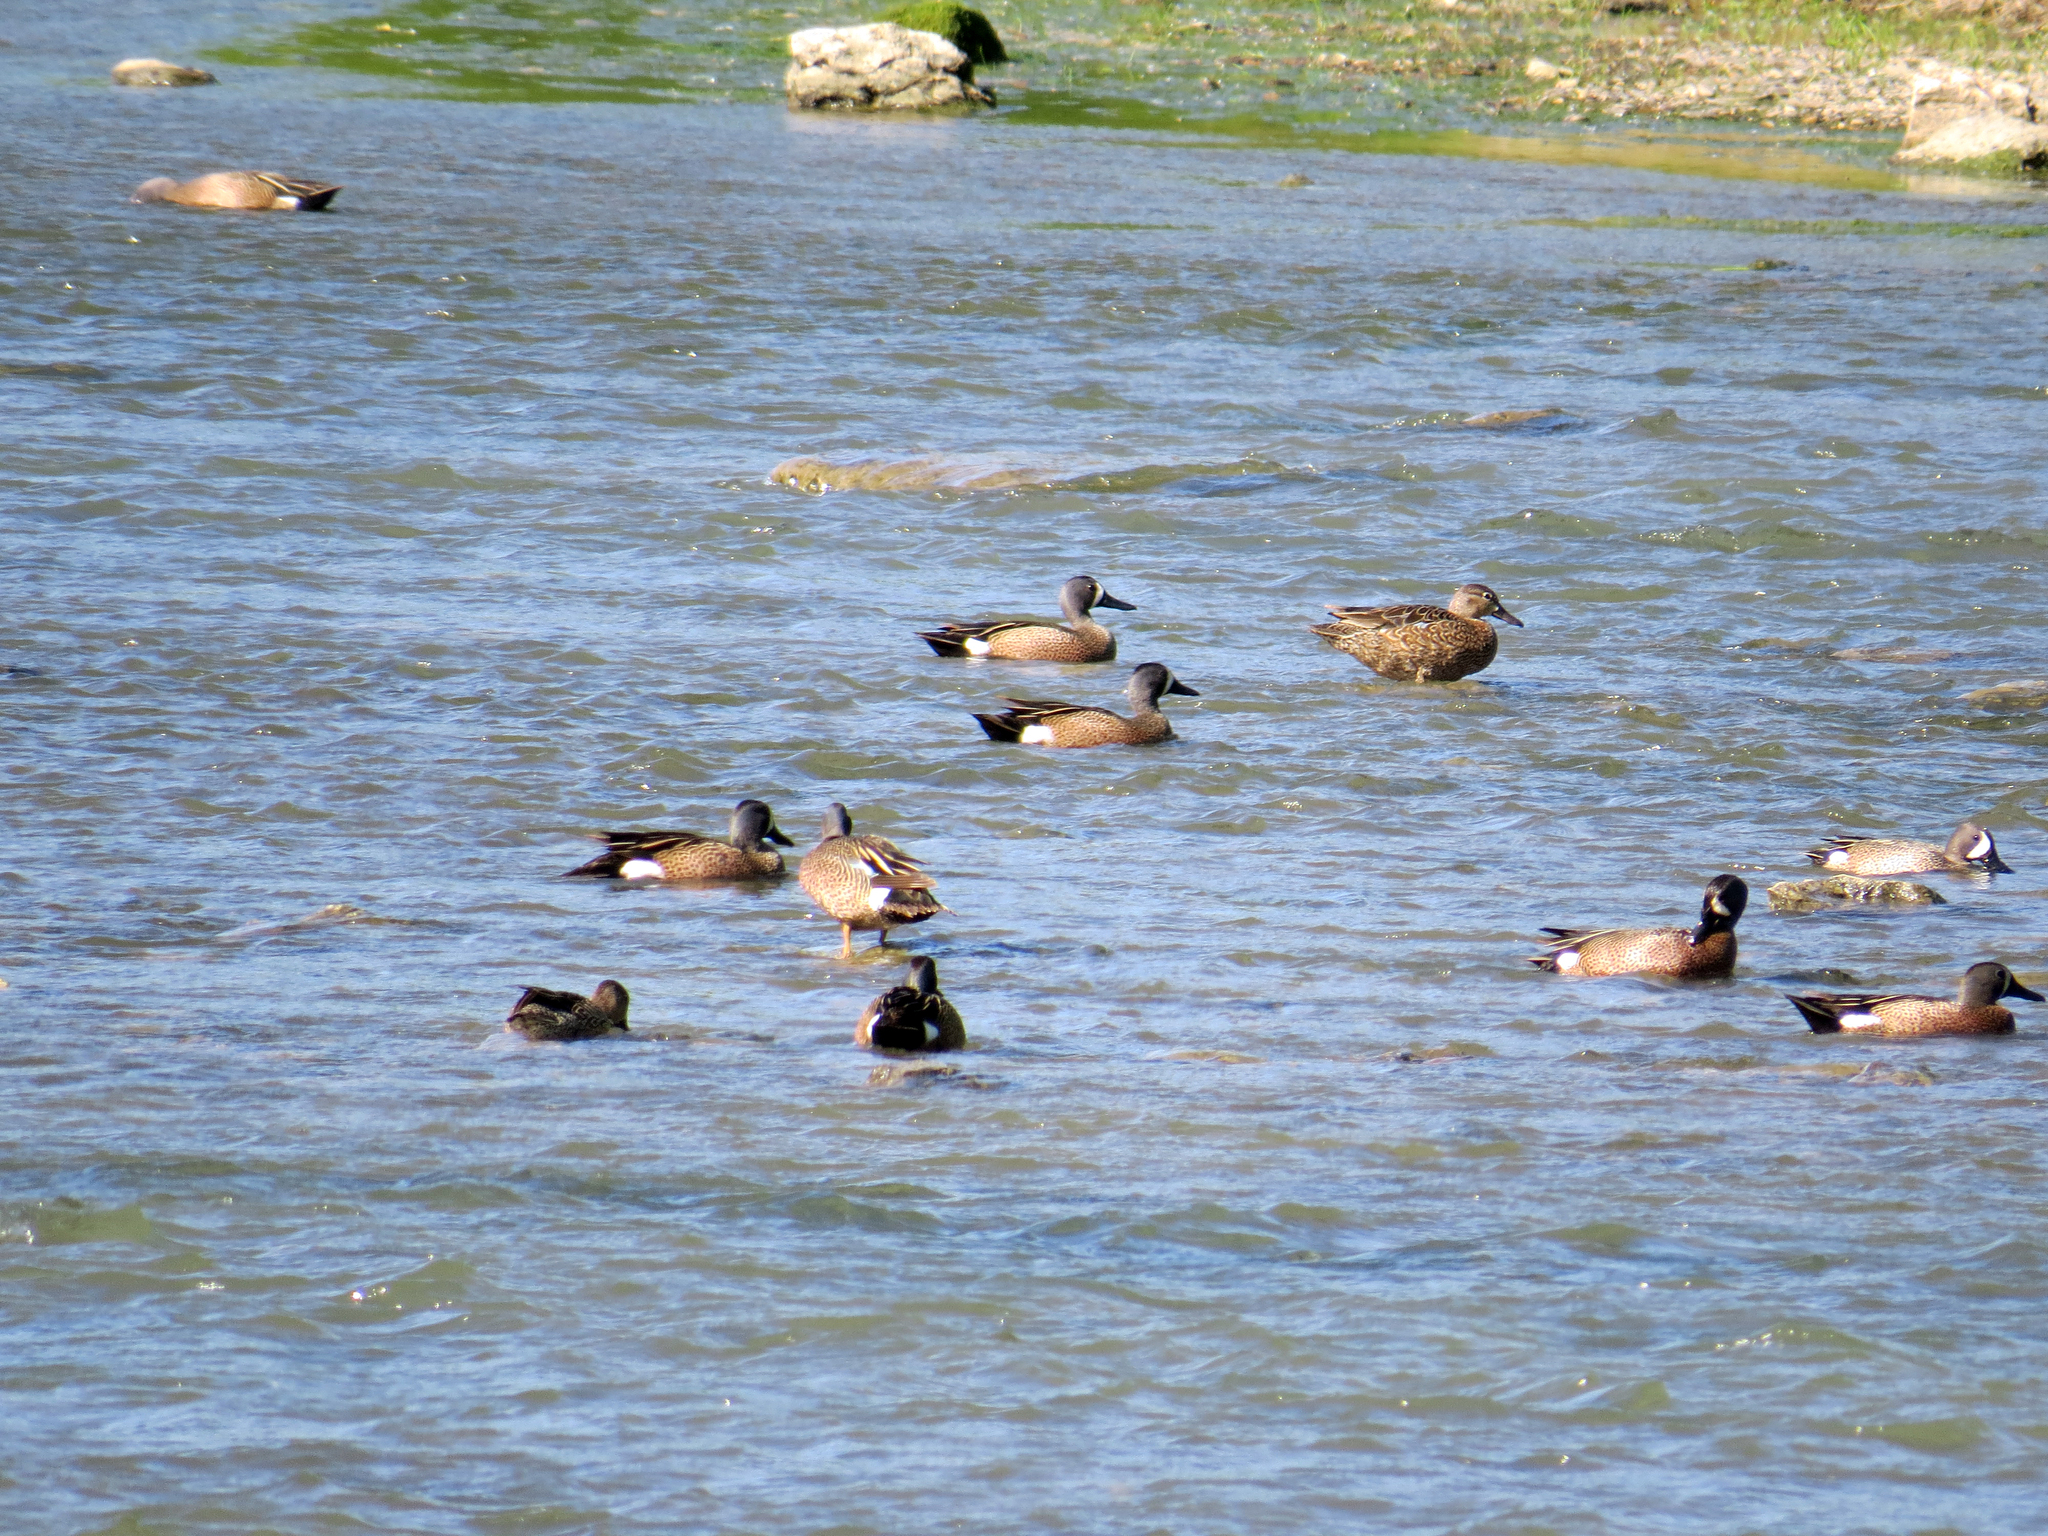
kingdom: Animalia
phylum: Chordata
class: Aves
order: Anseriformes
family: Anatidae
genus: Spatula
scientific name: Spatula discors
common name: Blue-winged teal
